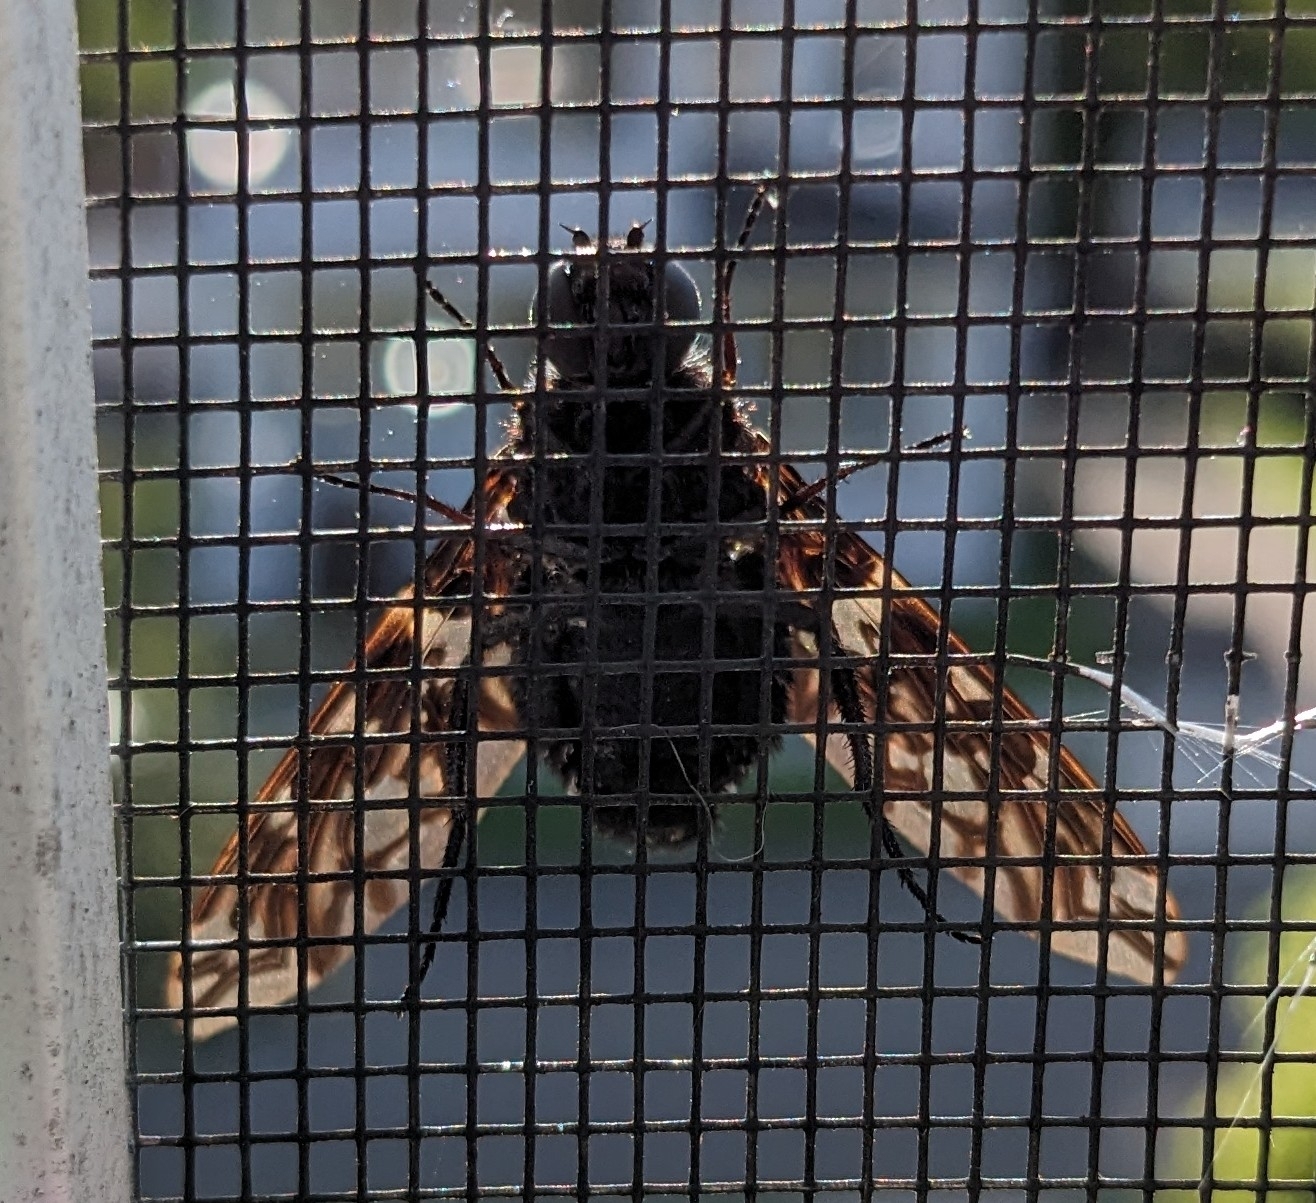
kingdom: Animalia
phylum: Arthropoda
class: Insecta
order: Diptera
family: Bombyliidae
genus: Xenox
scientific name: Xenox tigrinus
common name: Tiger bee fly
